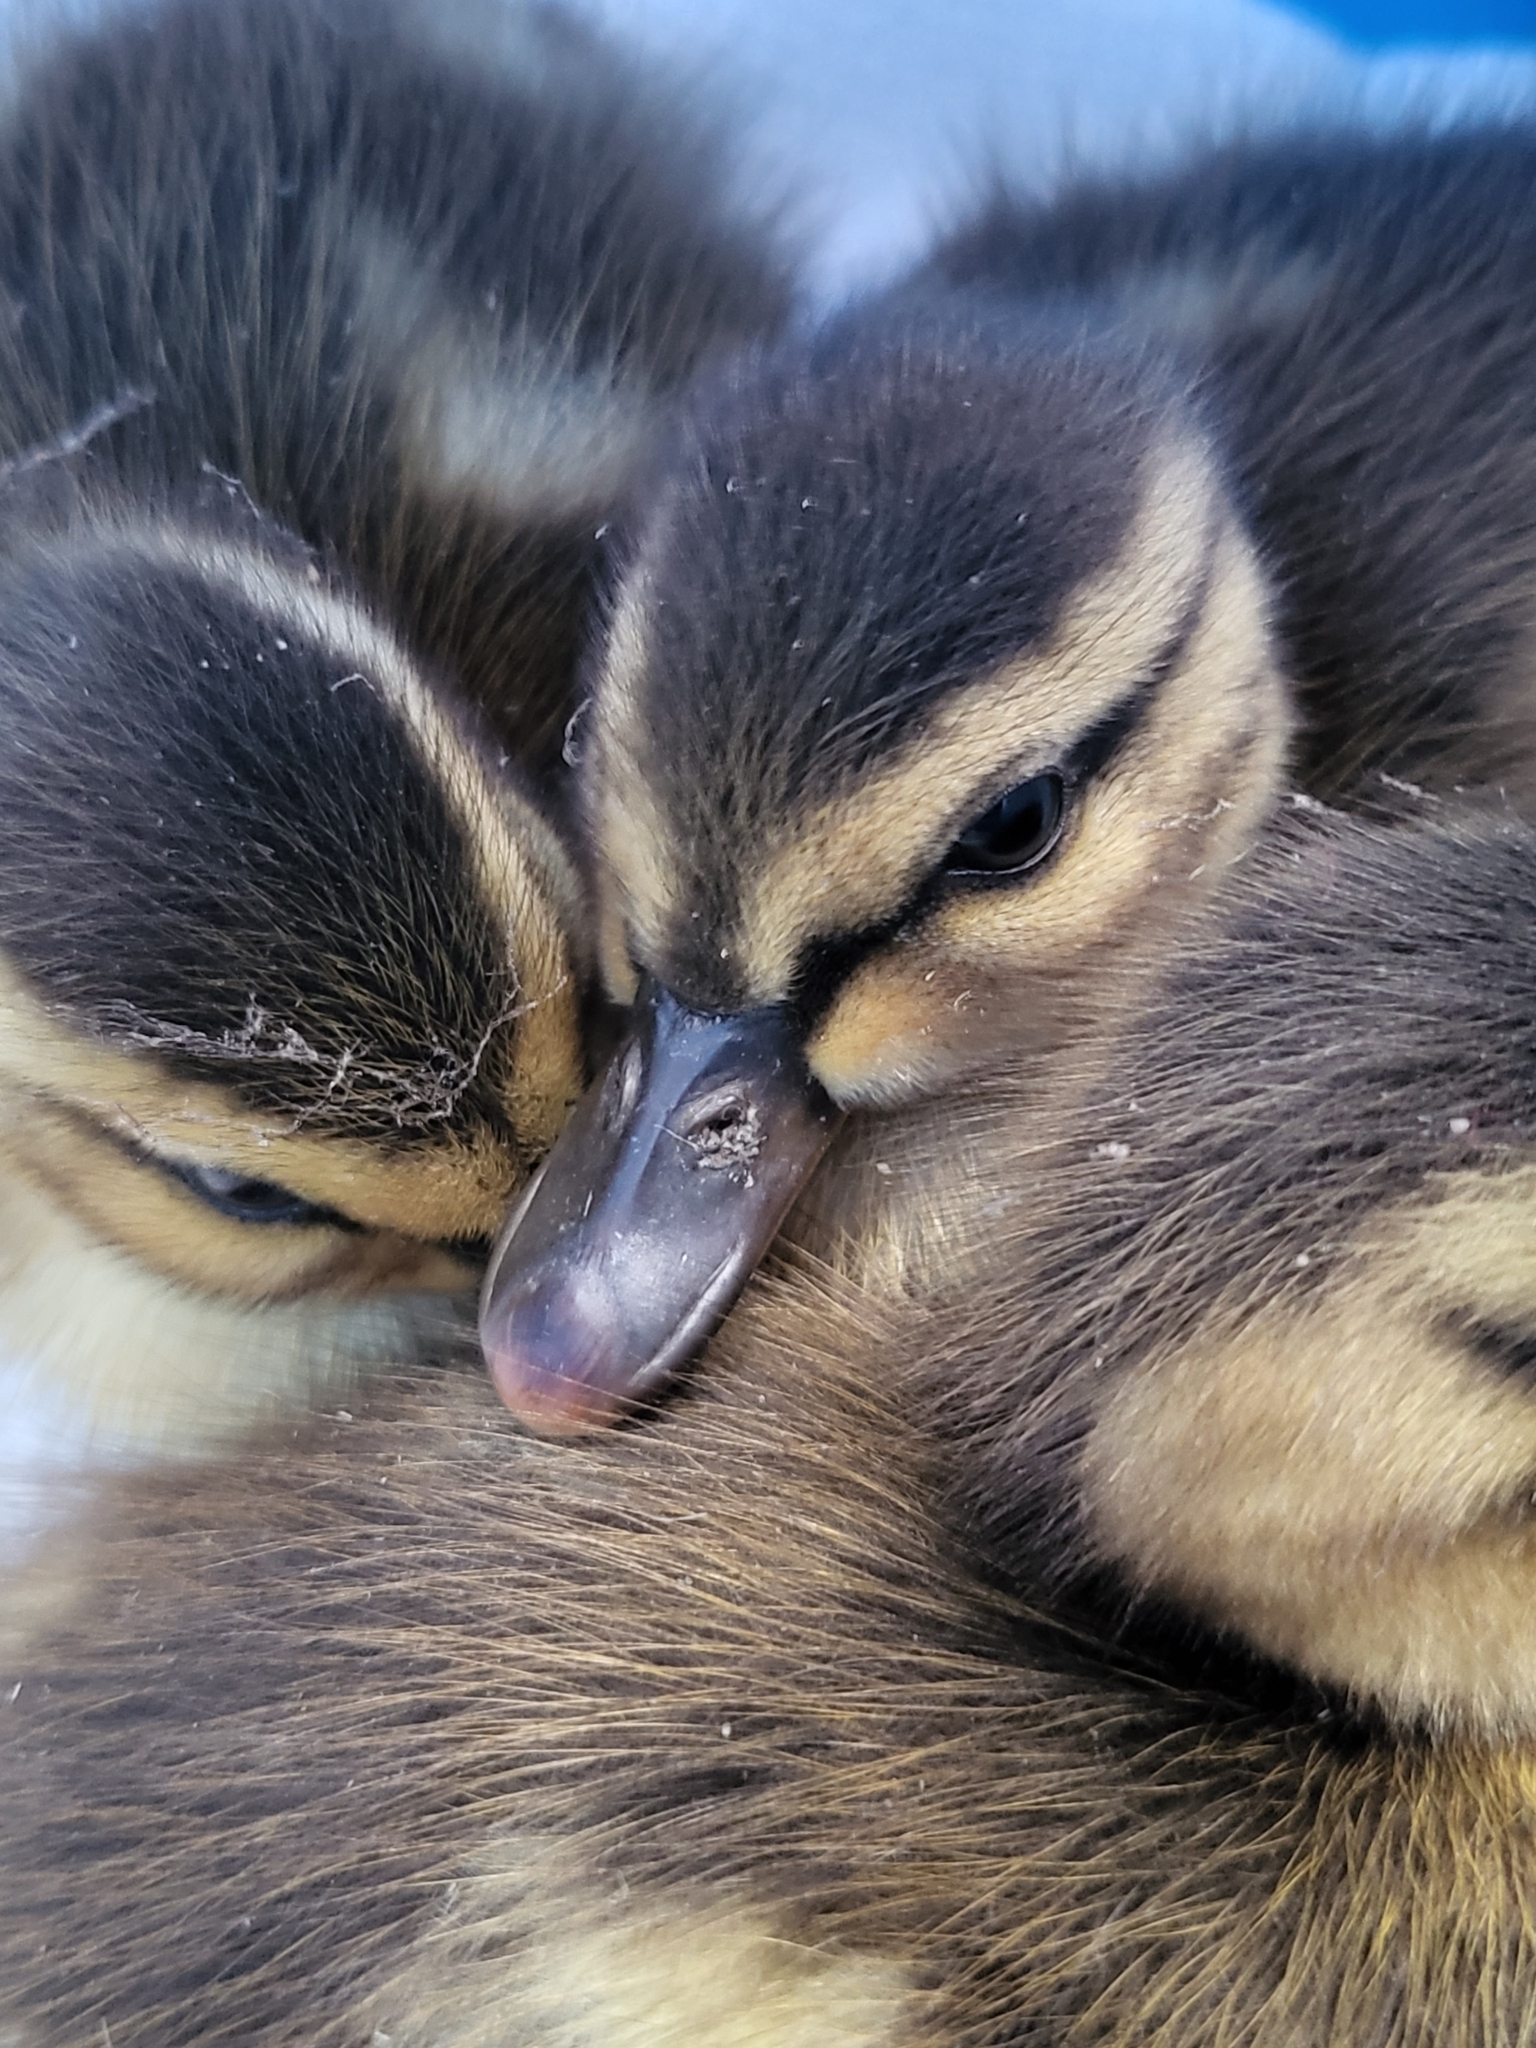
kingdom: Animalia
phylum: Chordata
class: Aves
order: Anseriformes
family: Anatidae
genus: Anas
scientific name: Anas platyrhynchos
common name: Mallard
